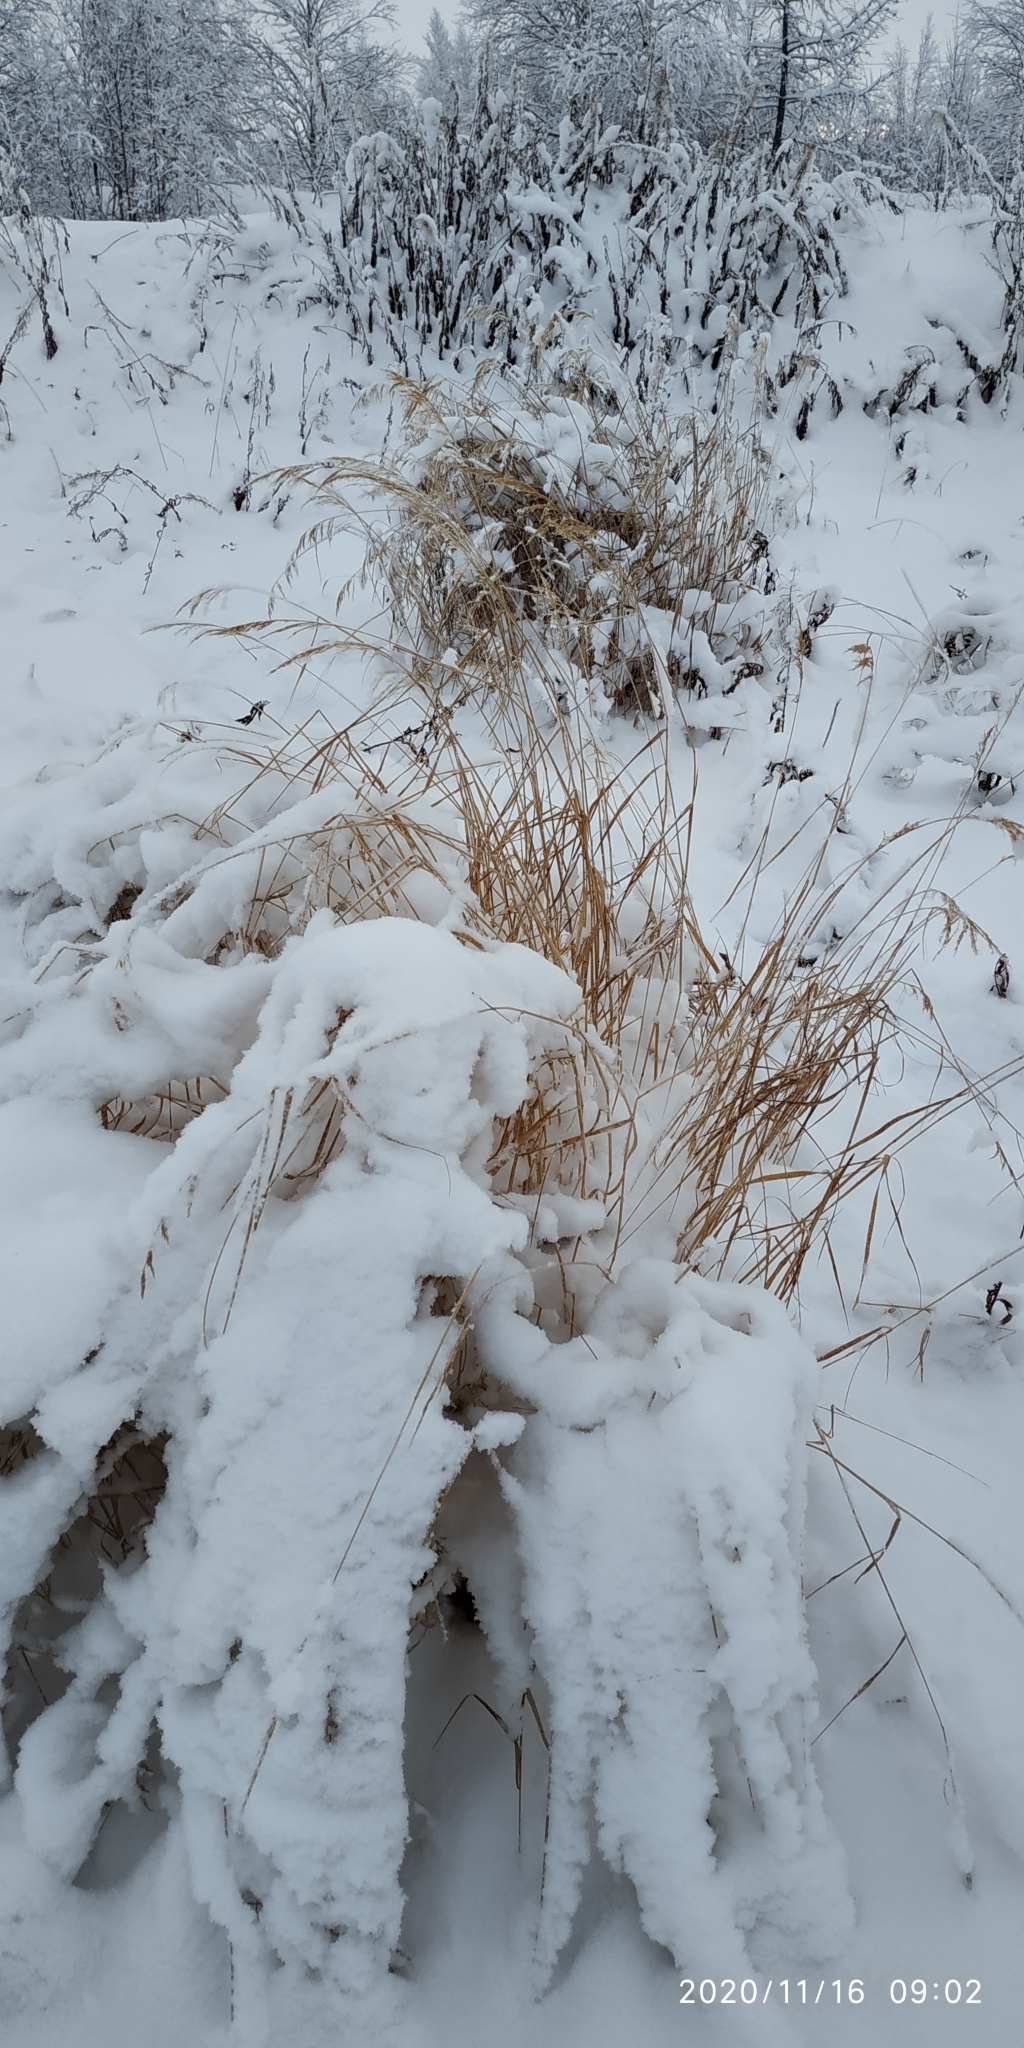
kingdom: Plantae
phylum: Tracheophyta
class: Liliopsida
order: Poales
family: Poaceae
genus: Calamagrostis
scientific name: Calamagrostis purpurea
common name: Scandinavian small-reed
